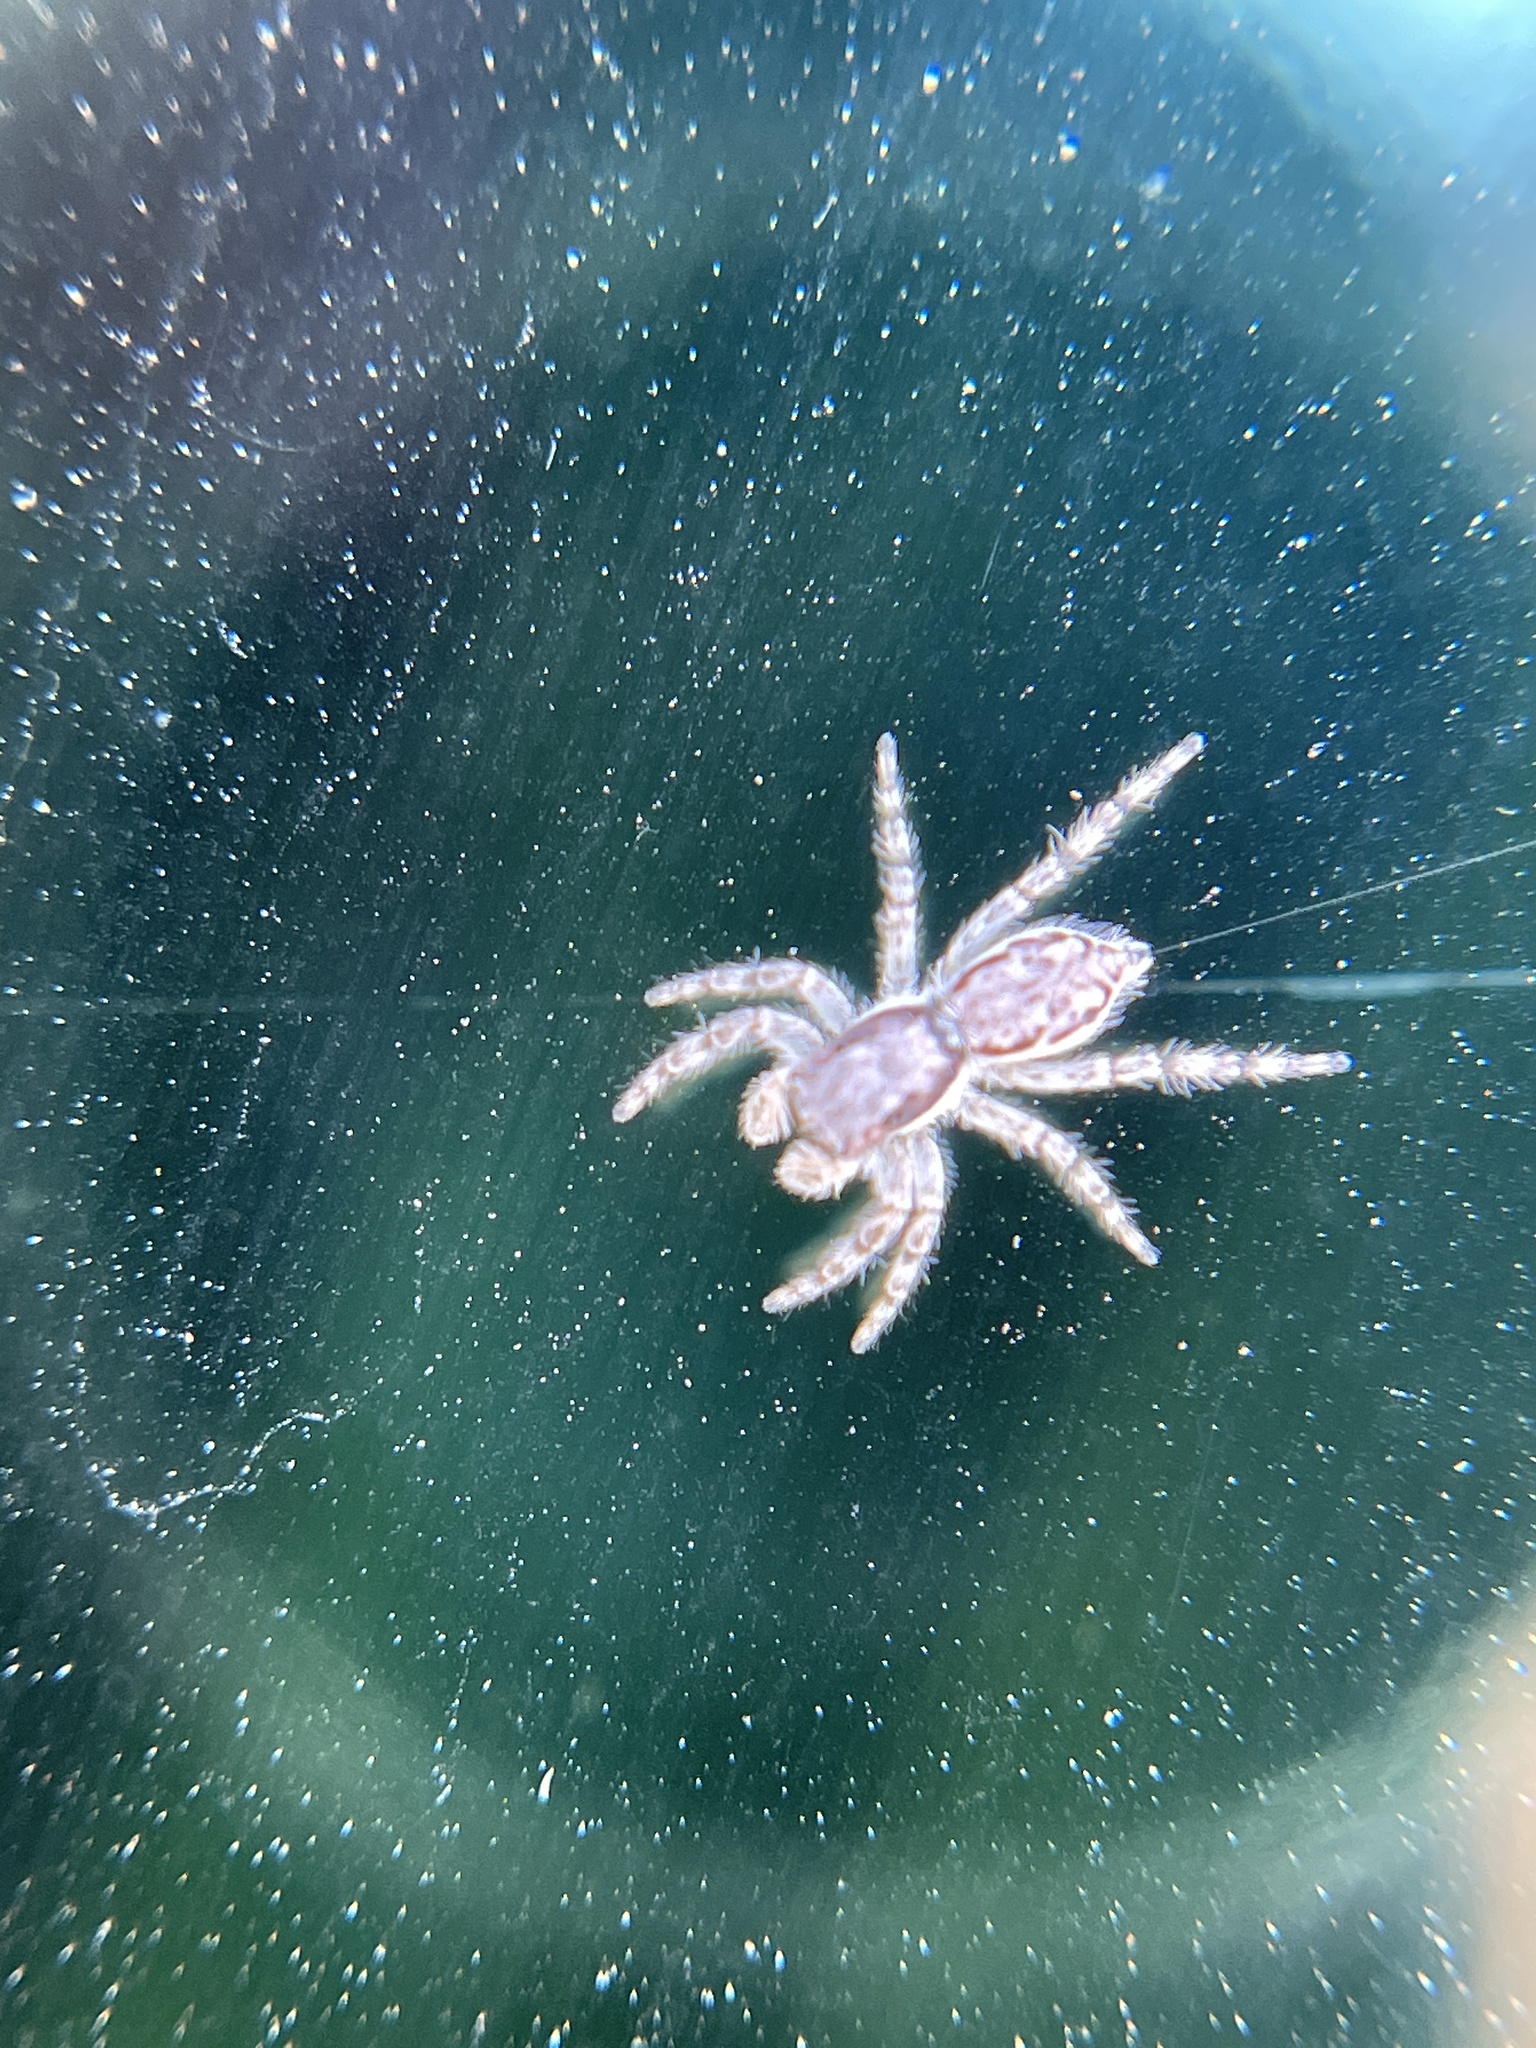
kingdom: Animalia
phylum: Arthropoda
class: Arachnida
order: Araneae
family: Salticidae
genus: Menemerus
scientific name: Menemerus bivittatus
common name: Gray wall jumper
